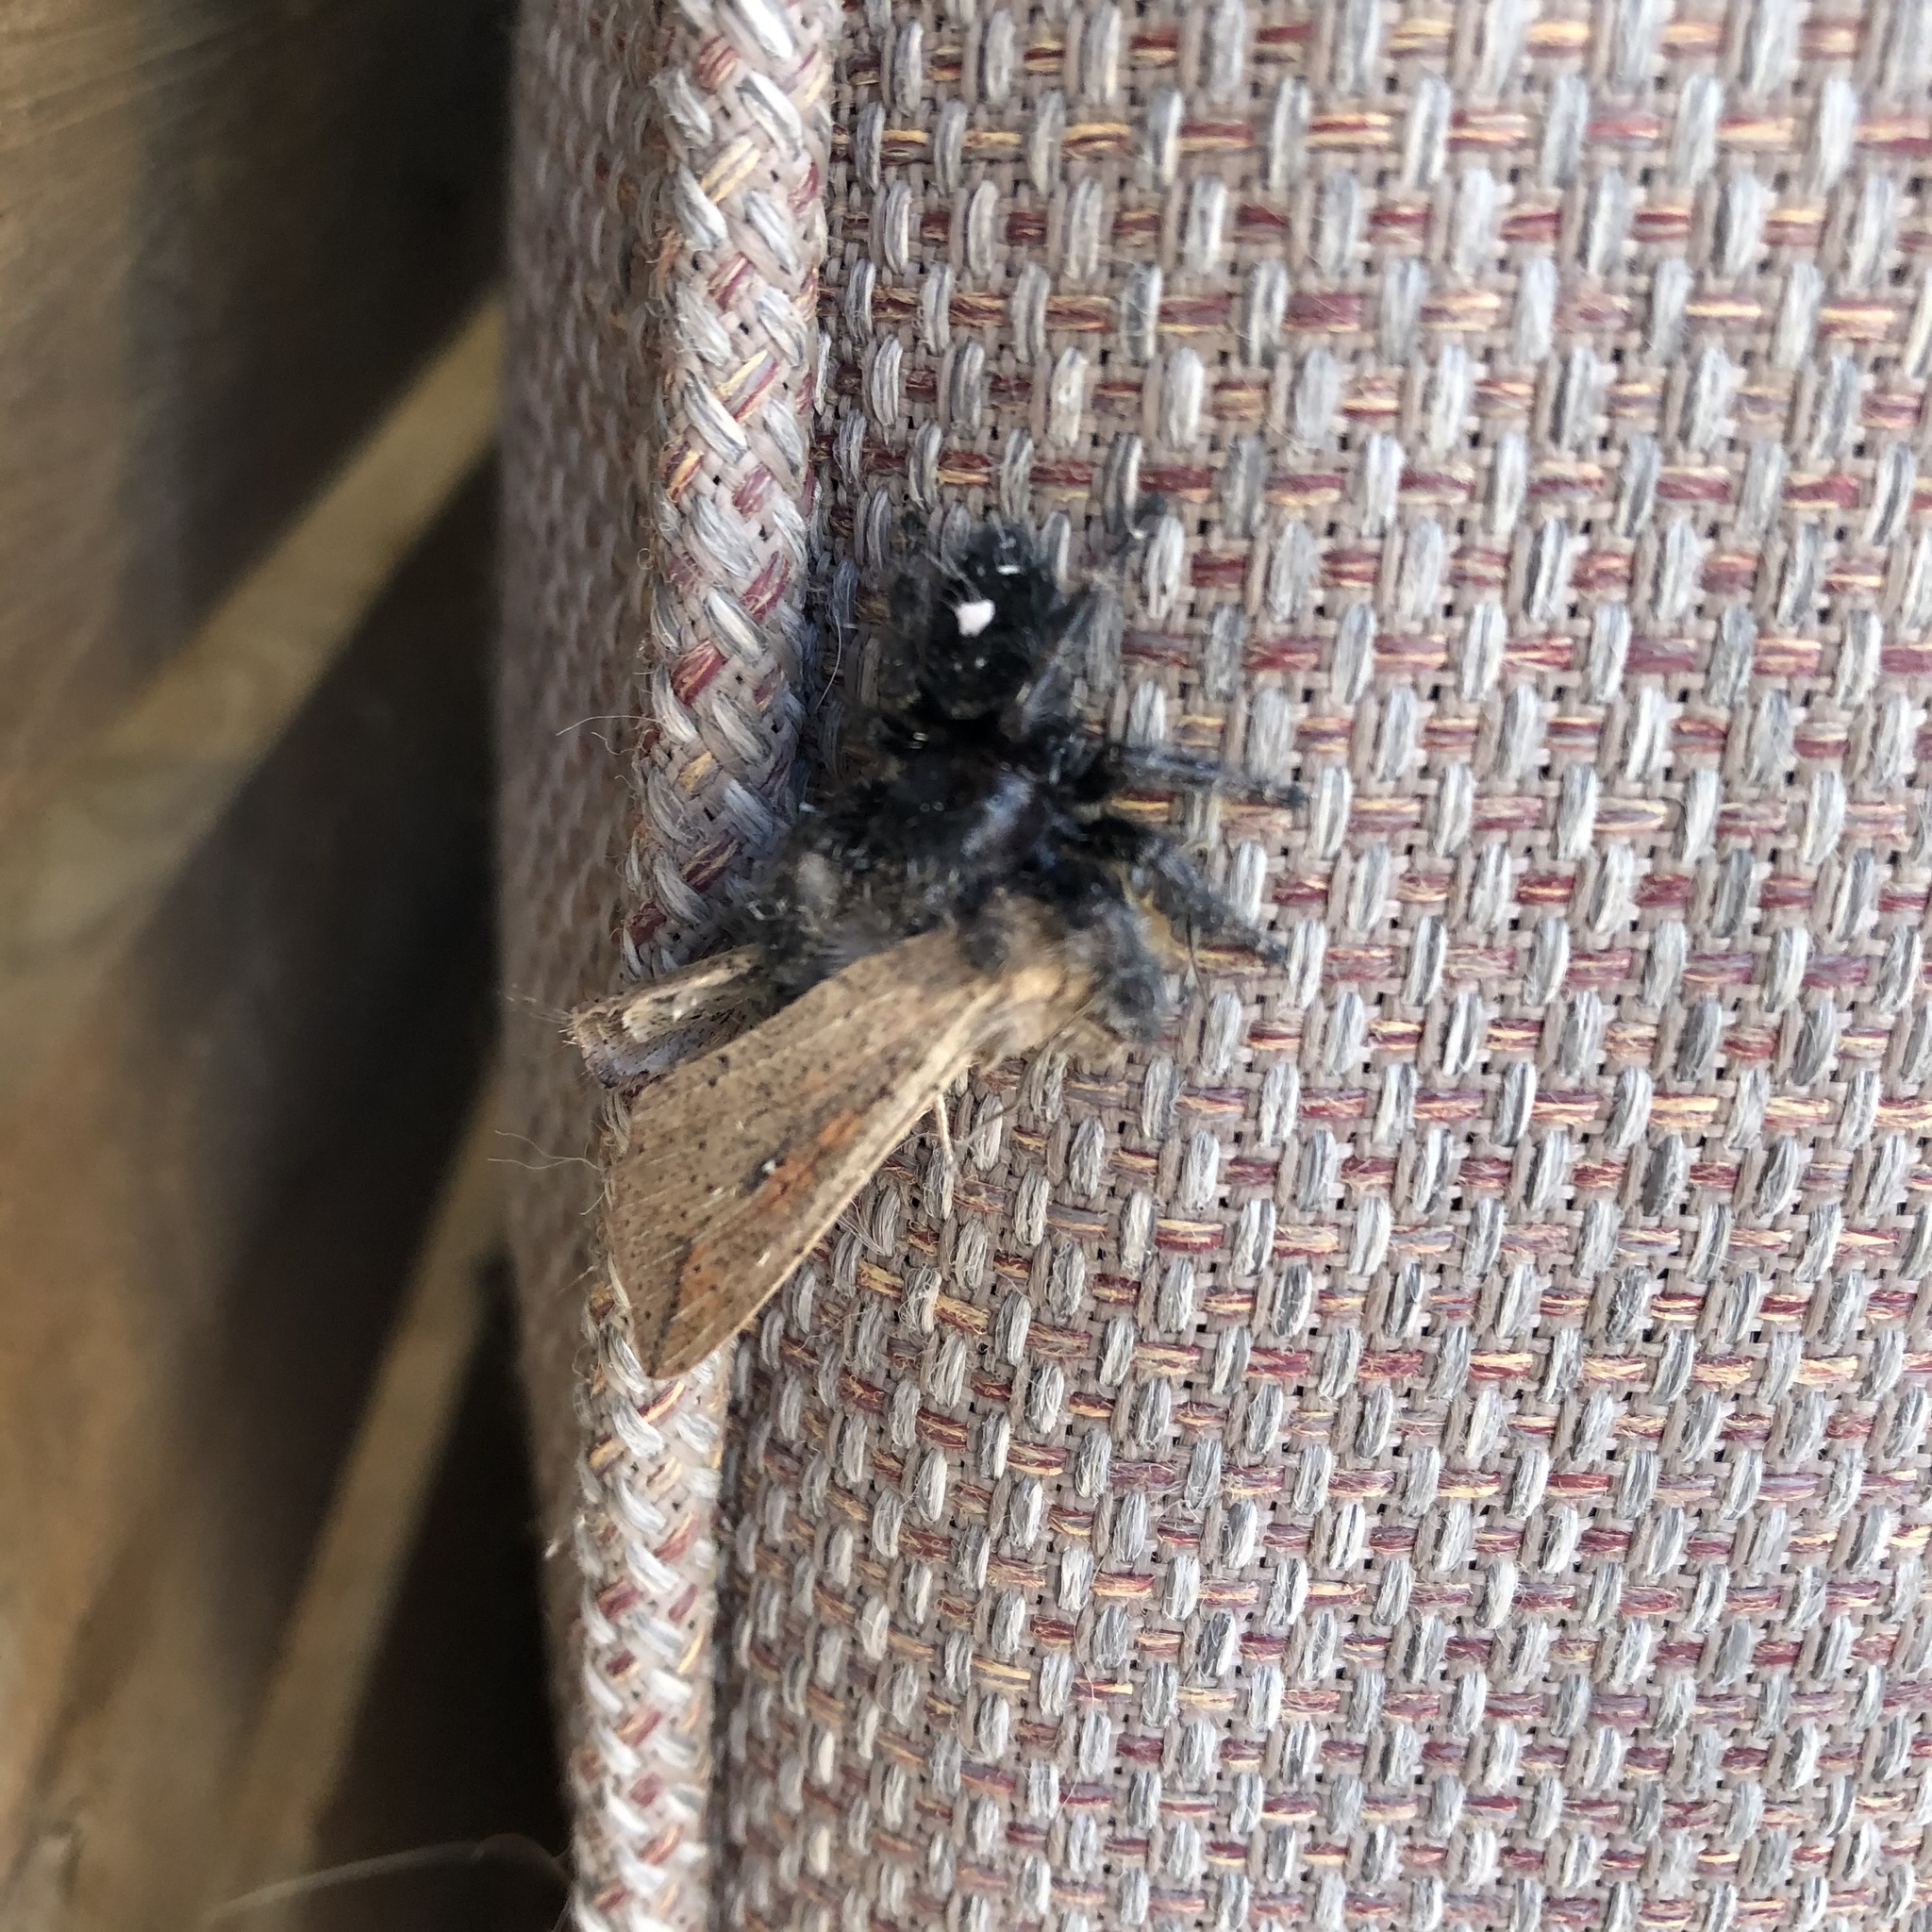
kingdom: Animalia
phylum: Arthropoda
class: Insecta
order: Lepidoptera
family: Noctuidae
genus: Mythimna
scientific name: Mythimna unipuncta
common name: White-speck
